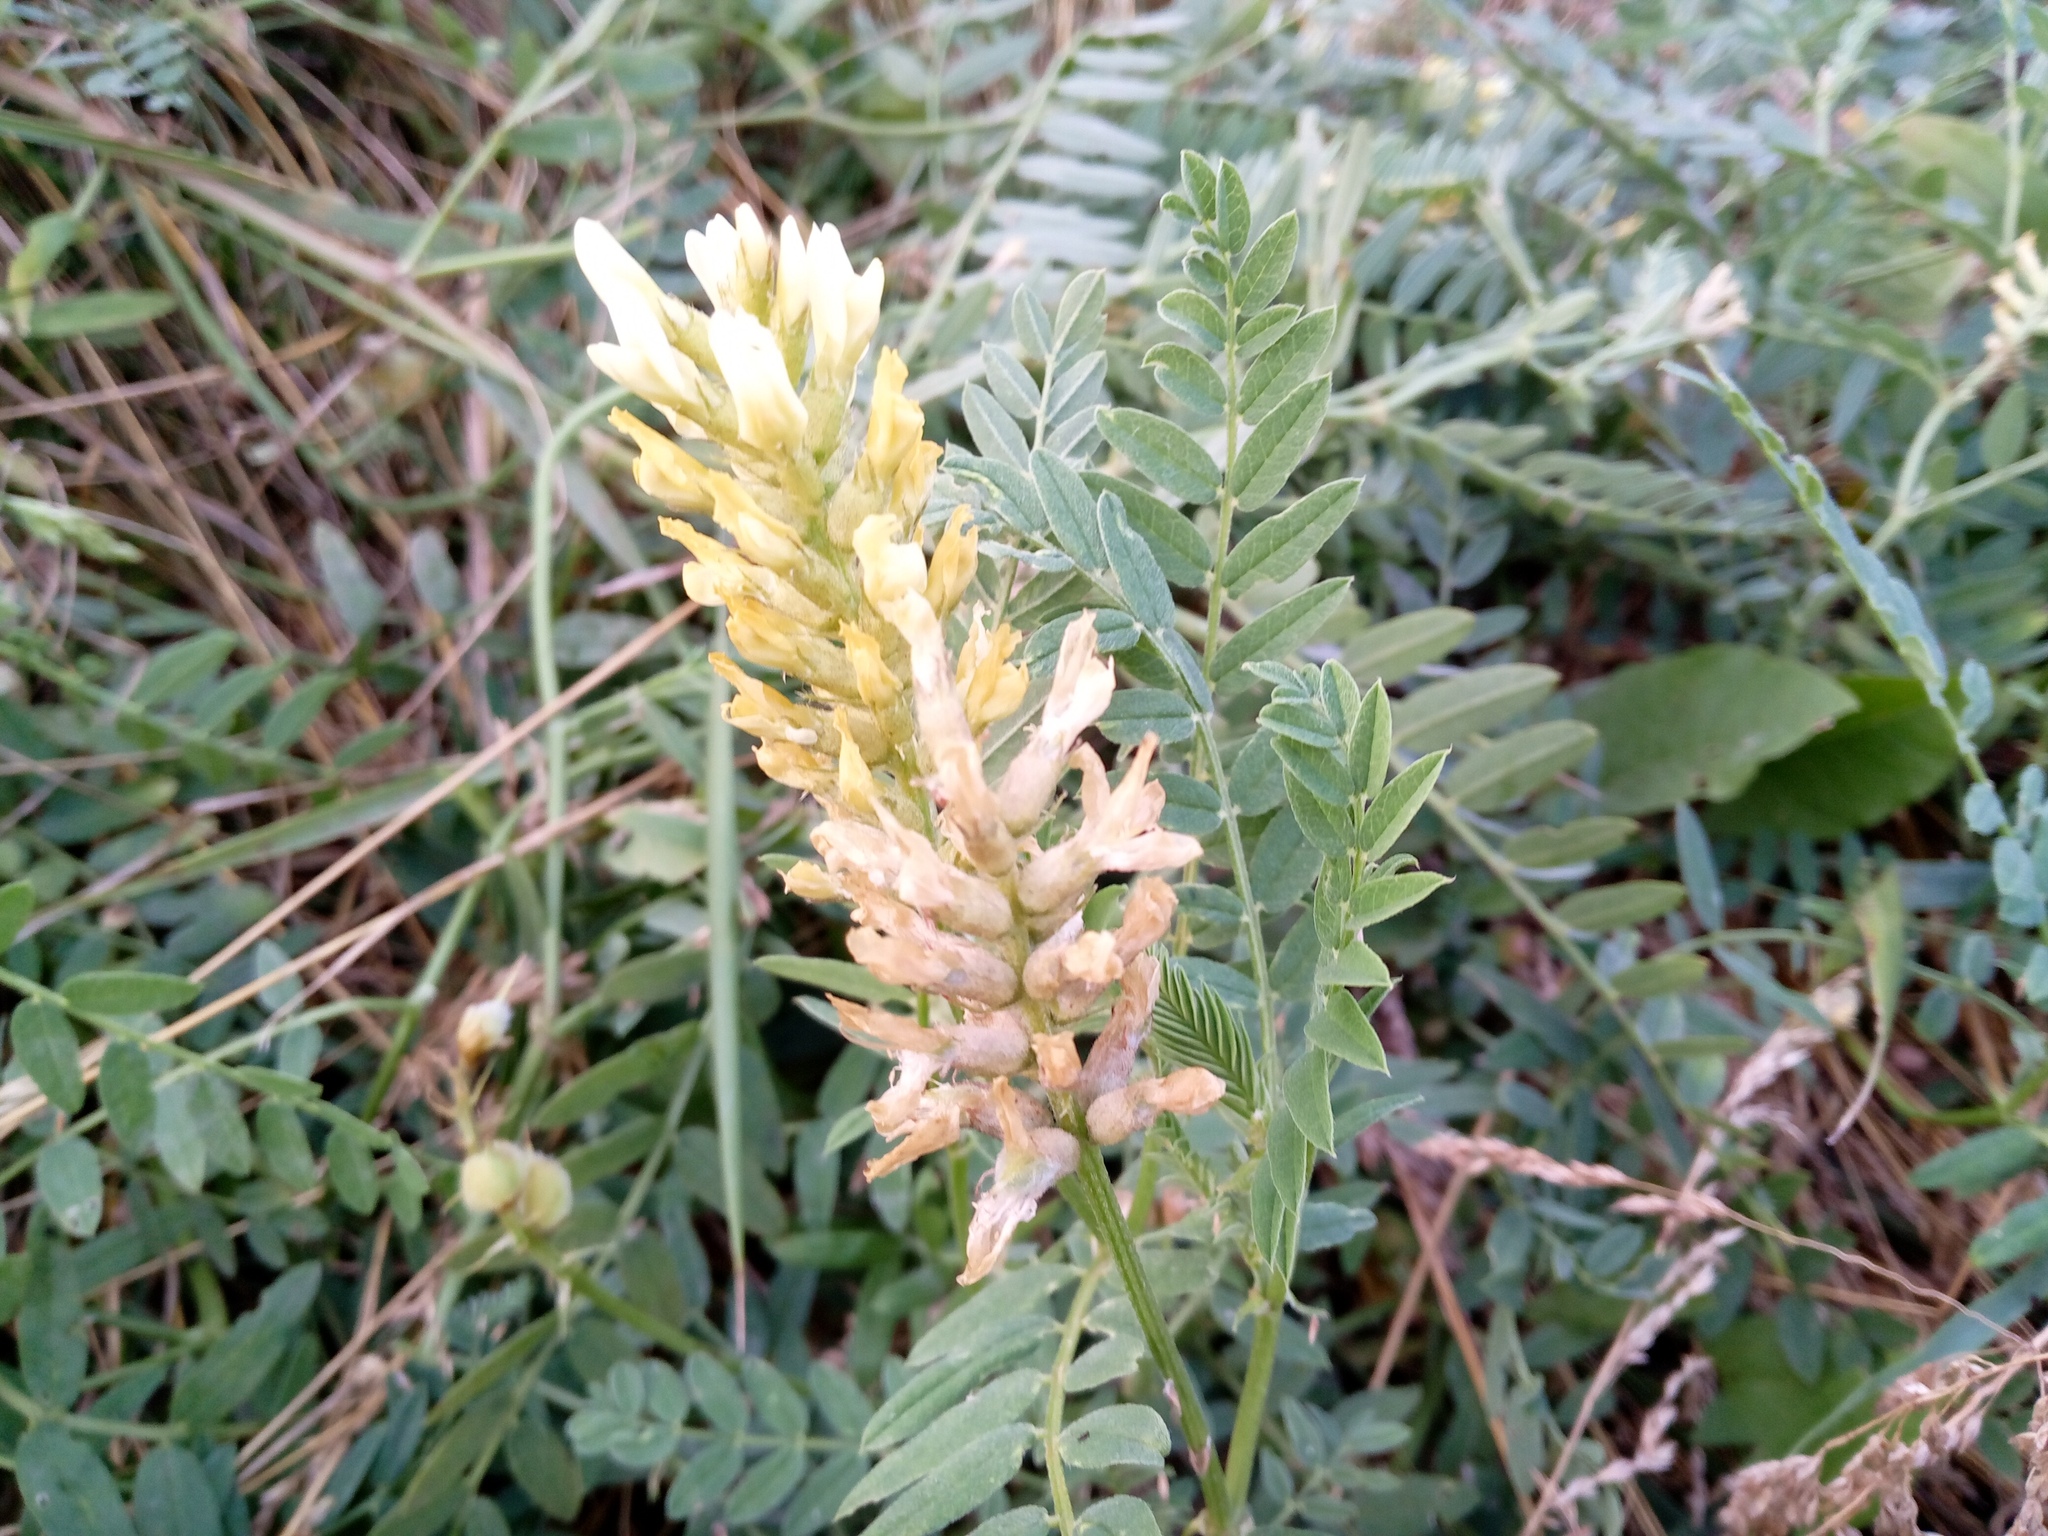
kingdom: Plantae
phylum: Tracheophyta
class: Magnoliopsida
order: Fabales
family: Fabaceae
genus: Astragalus
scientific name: Astragalus cicer
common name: Chick-pea milk-vetch
